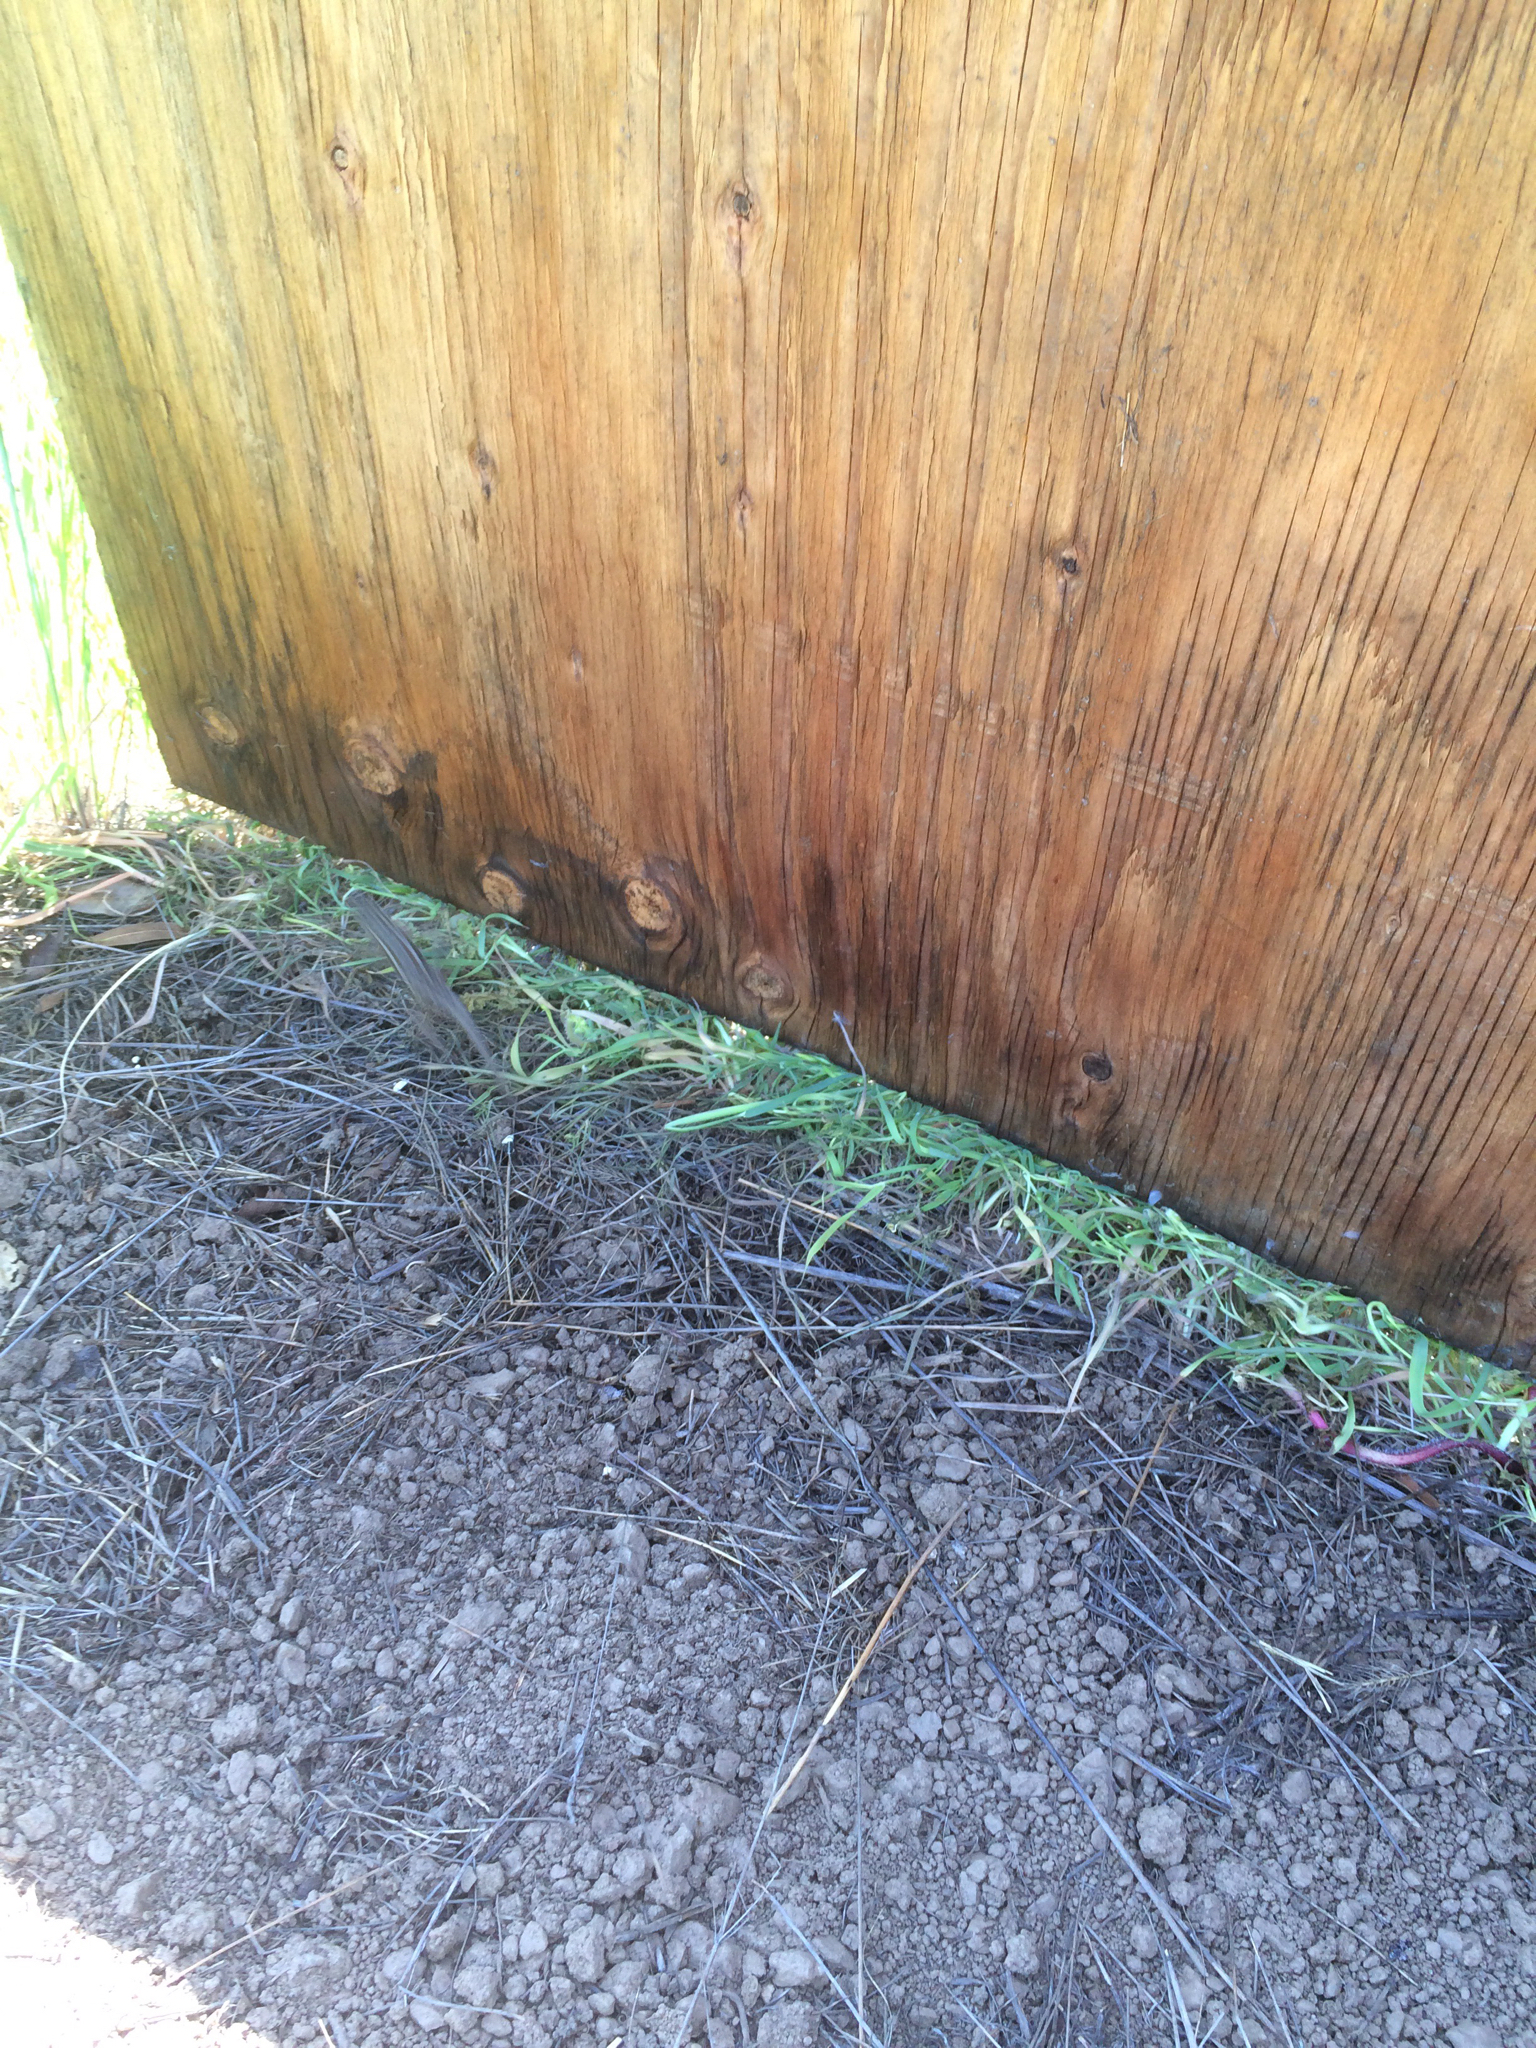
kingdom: Animalia
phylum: Chordata
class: Squamata
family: Phrynosomatidae
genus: Sceloporus
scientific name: Sceloporus occidentalis
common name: Western fence lizard
